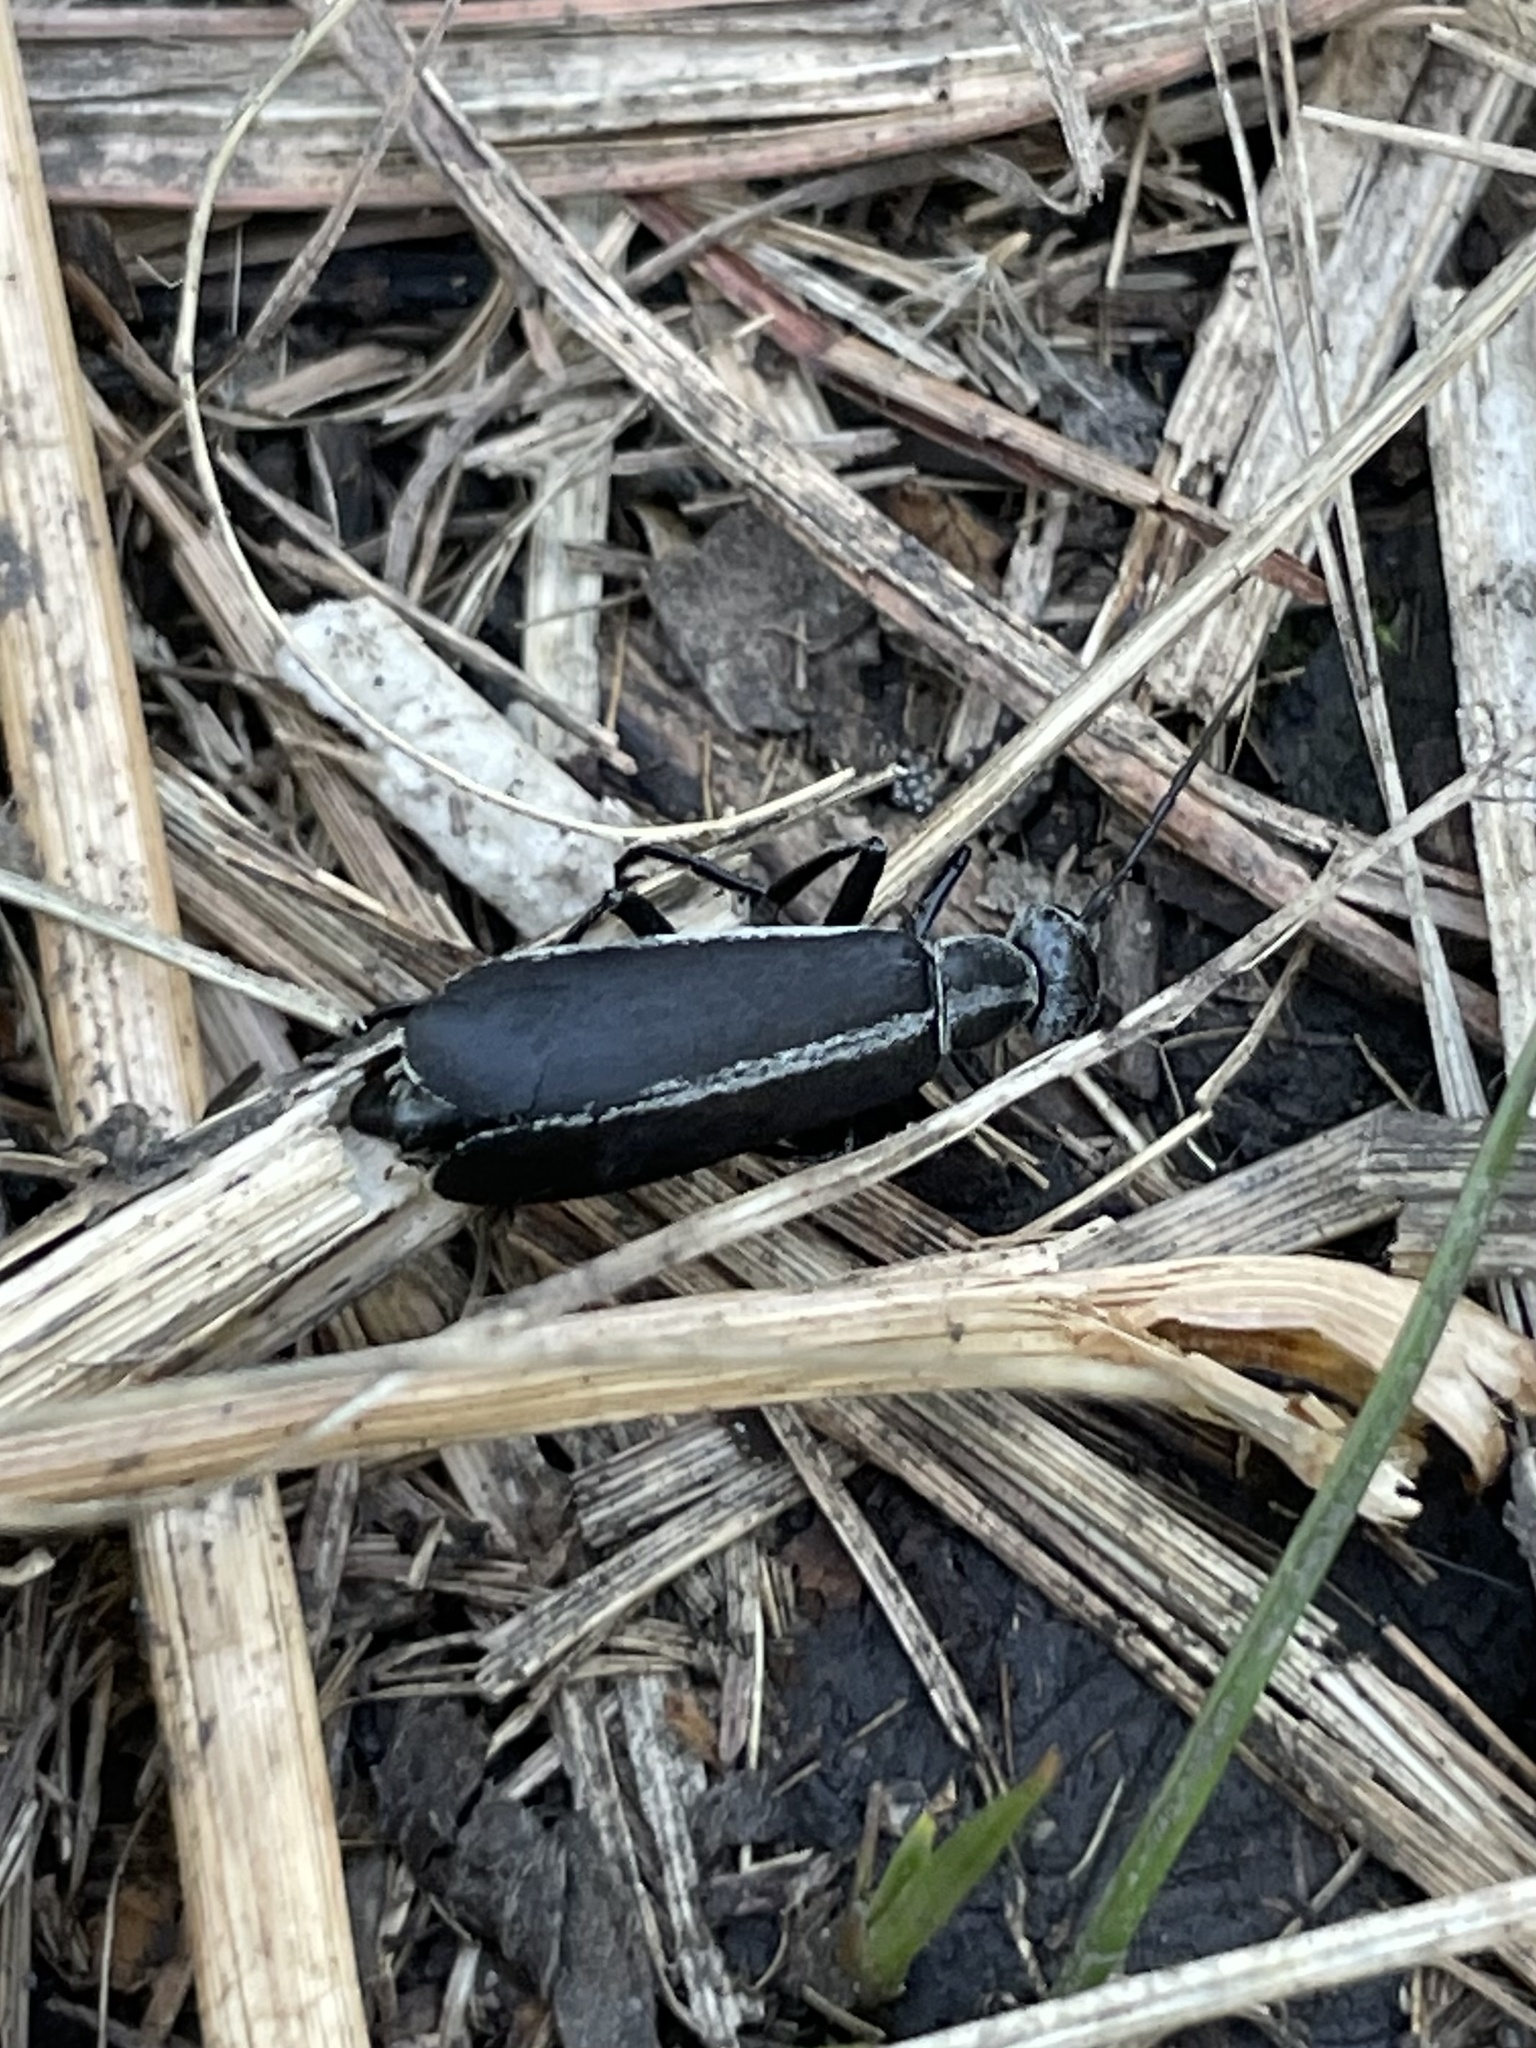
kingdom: Animalia
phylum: Arthropoda
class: Insecta
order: Coleoptera
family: Meloidae
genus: Epicauta
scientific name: Epicauta funebris
